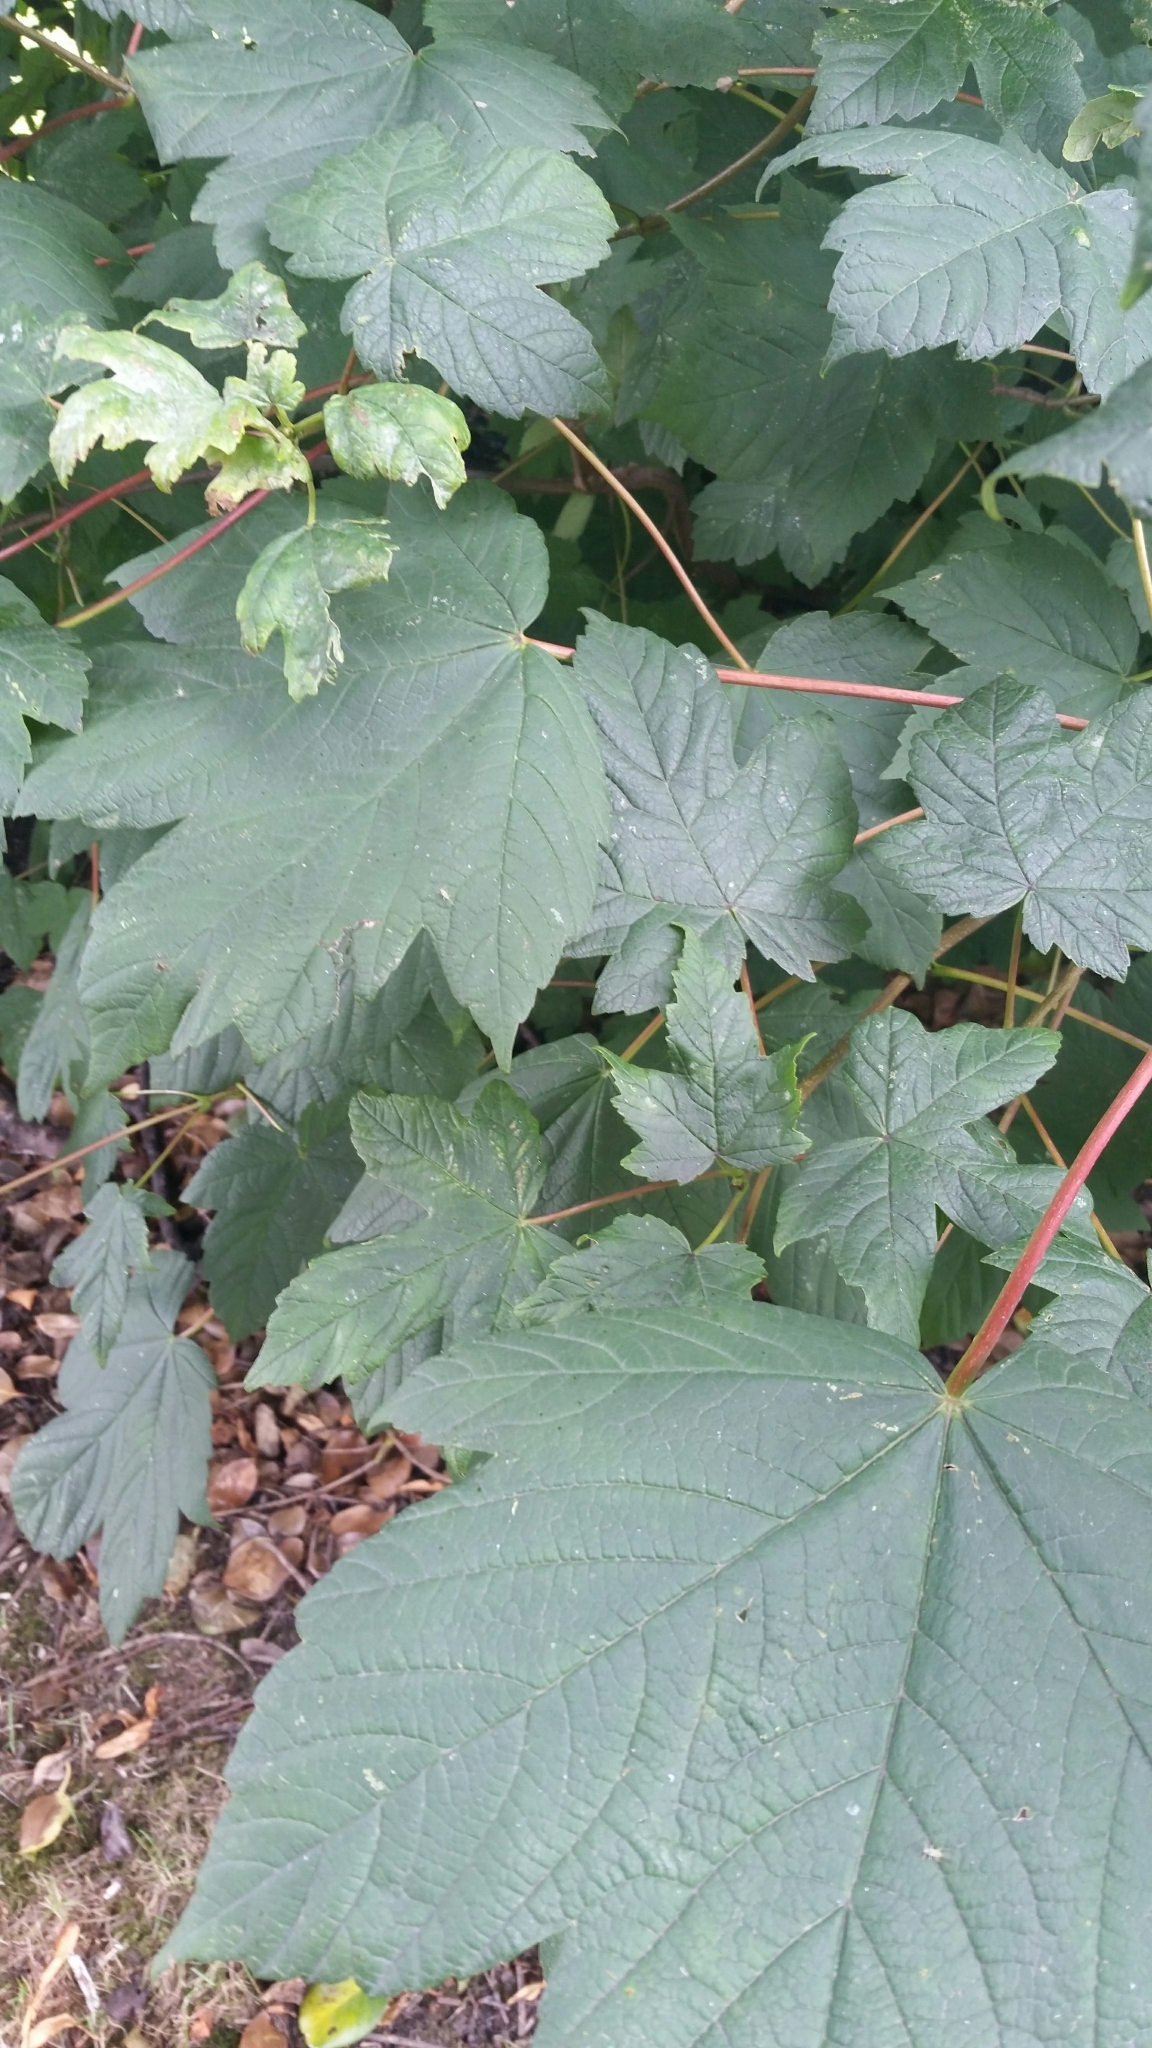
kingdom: Plantae
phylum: Tracheophyta
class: Magnoliopsida
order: Sapindales
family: Sapindaceae
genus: Acer
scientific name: Acer pseudoplatanus
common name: Sycamore
